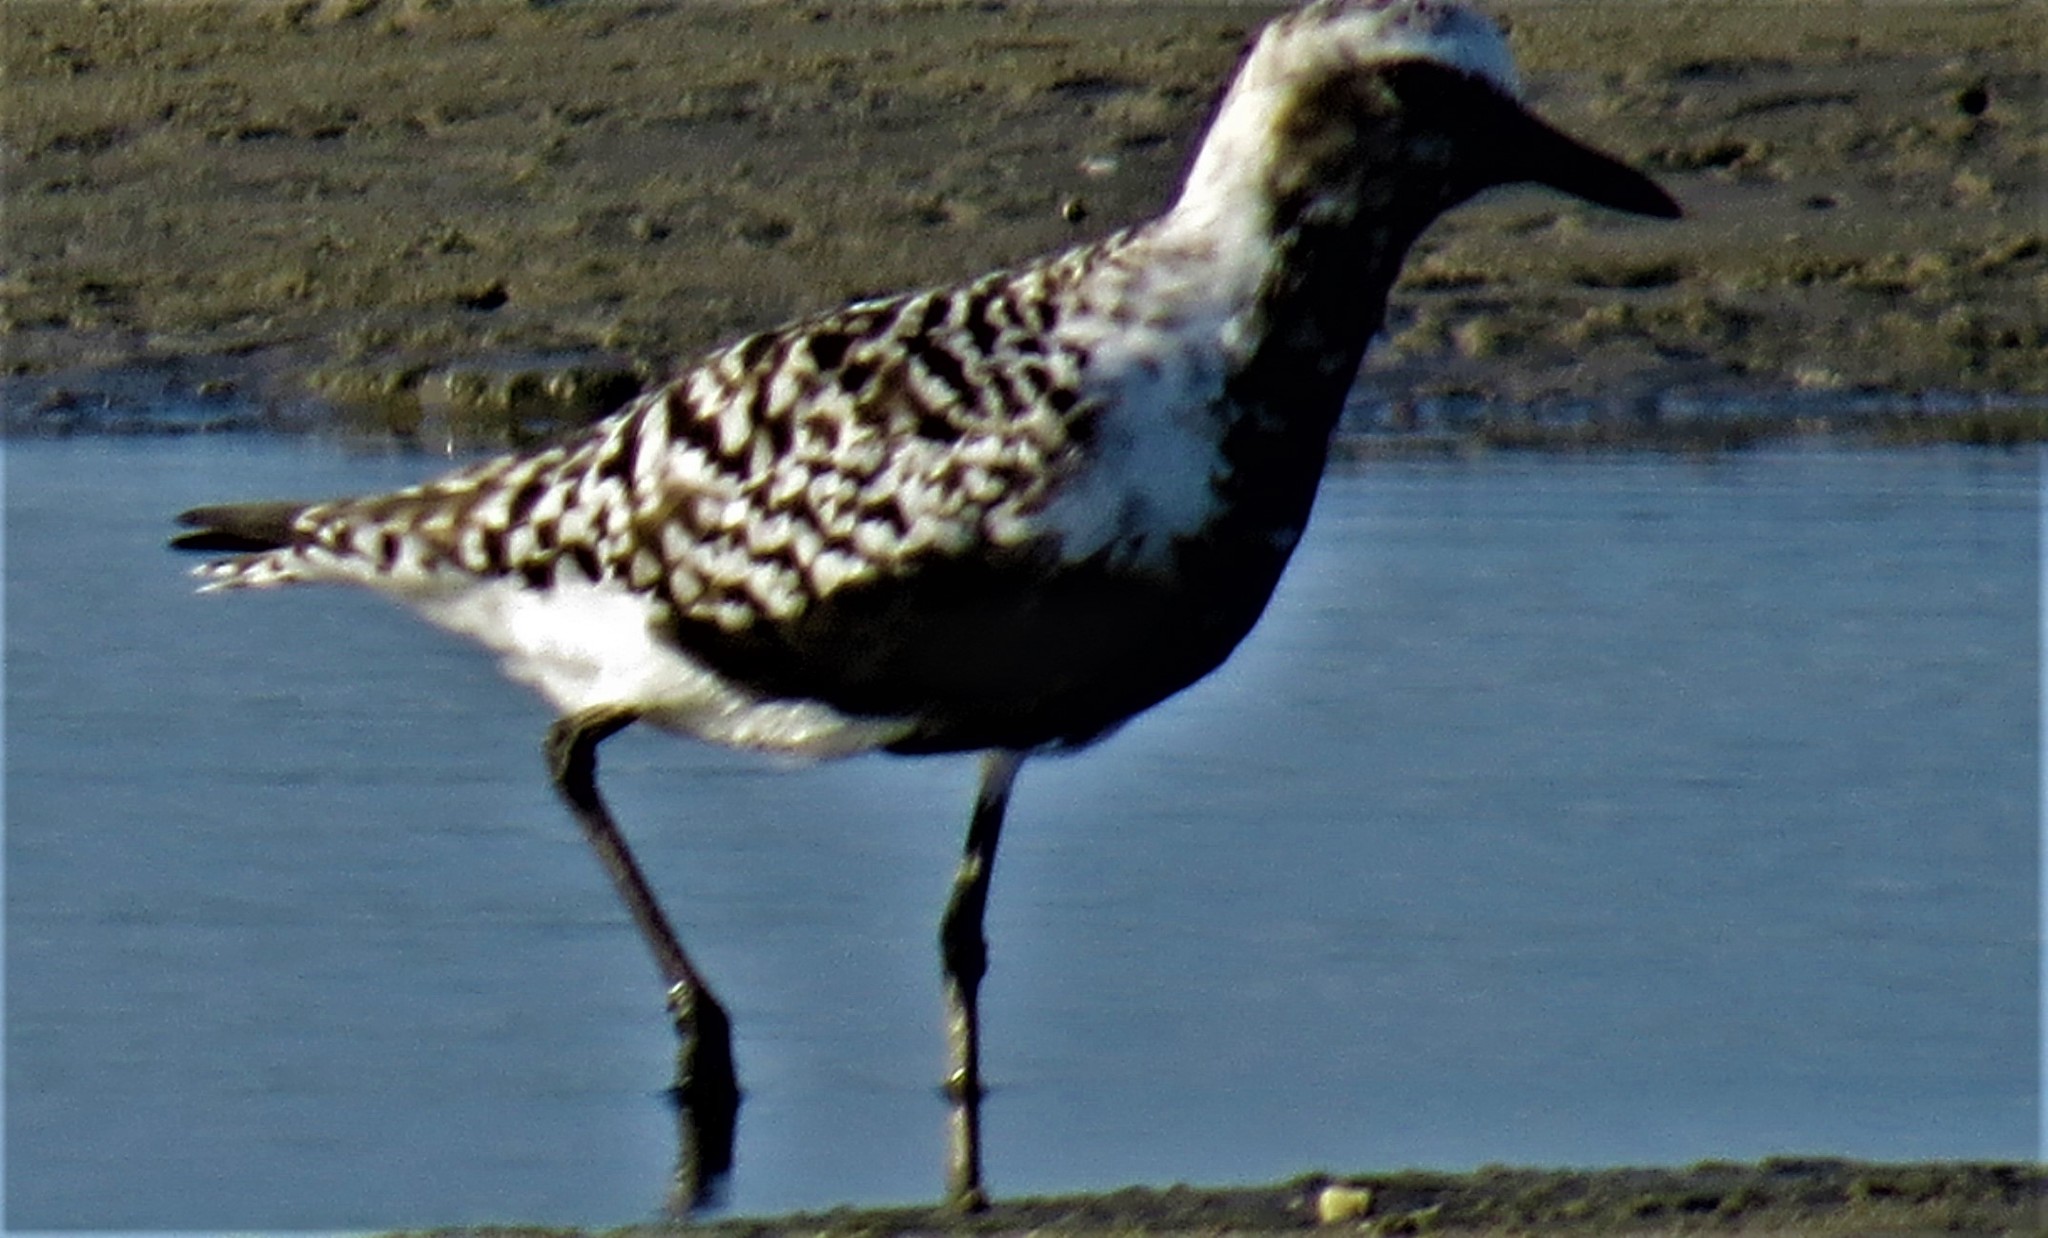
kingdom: Animalia
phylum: Chordata
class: Aves
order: Charadriiformes
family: Charadriidae
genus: Pluvialis
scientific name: Pluvialis squatarola
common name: Grey plover
